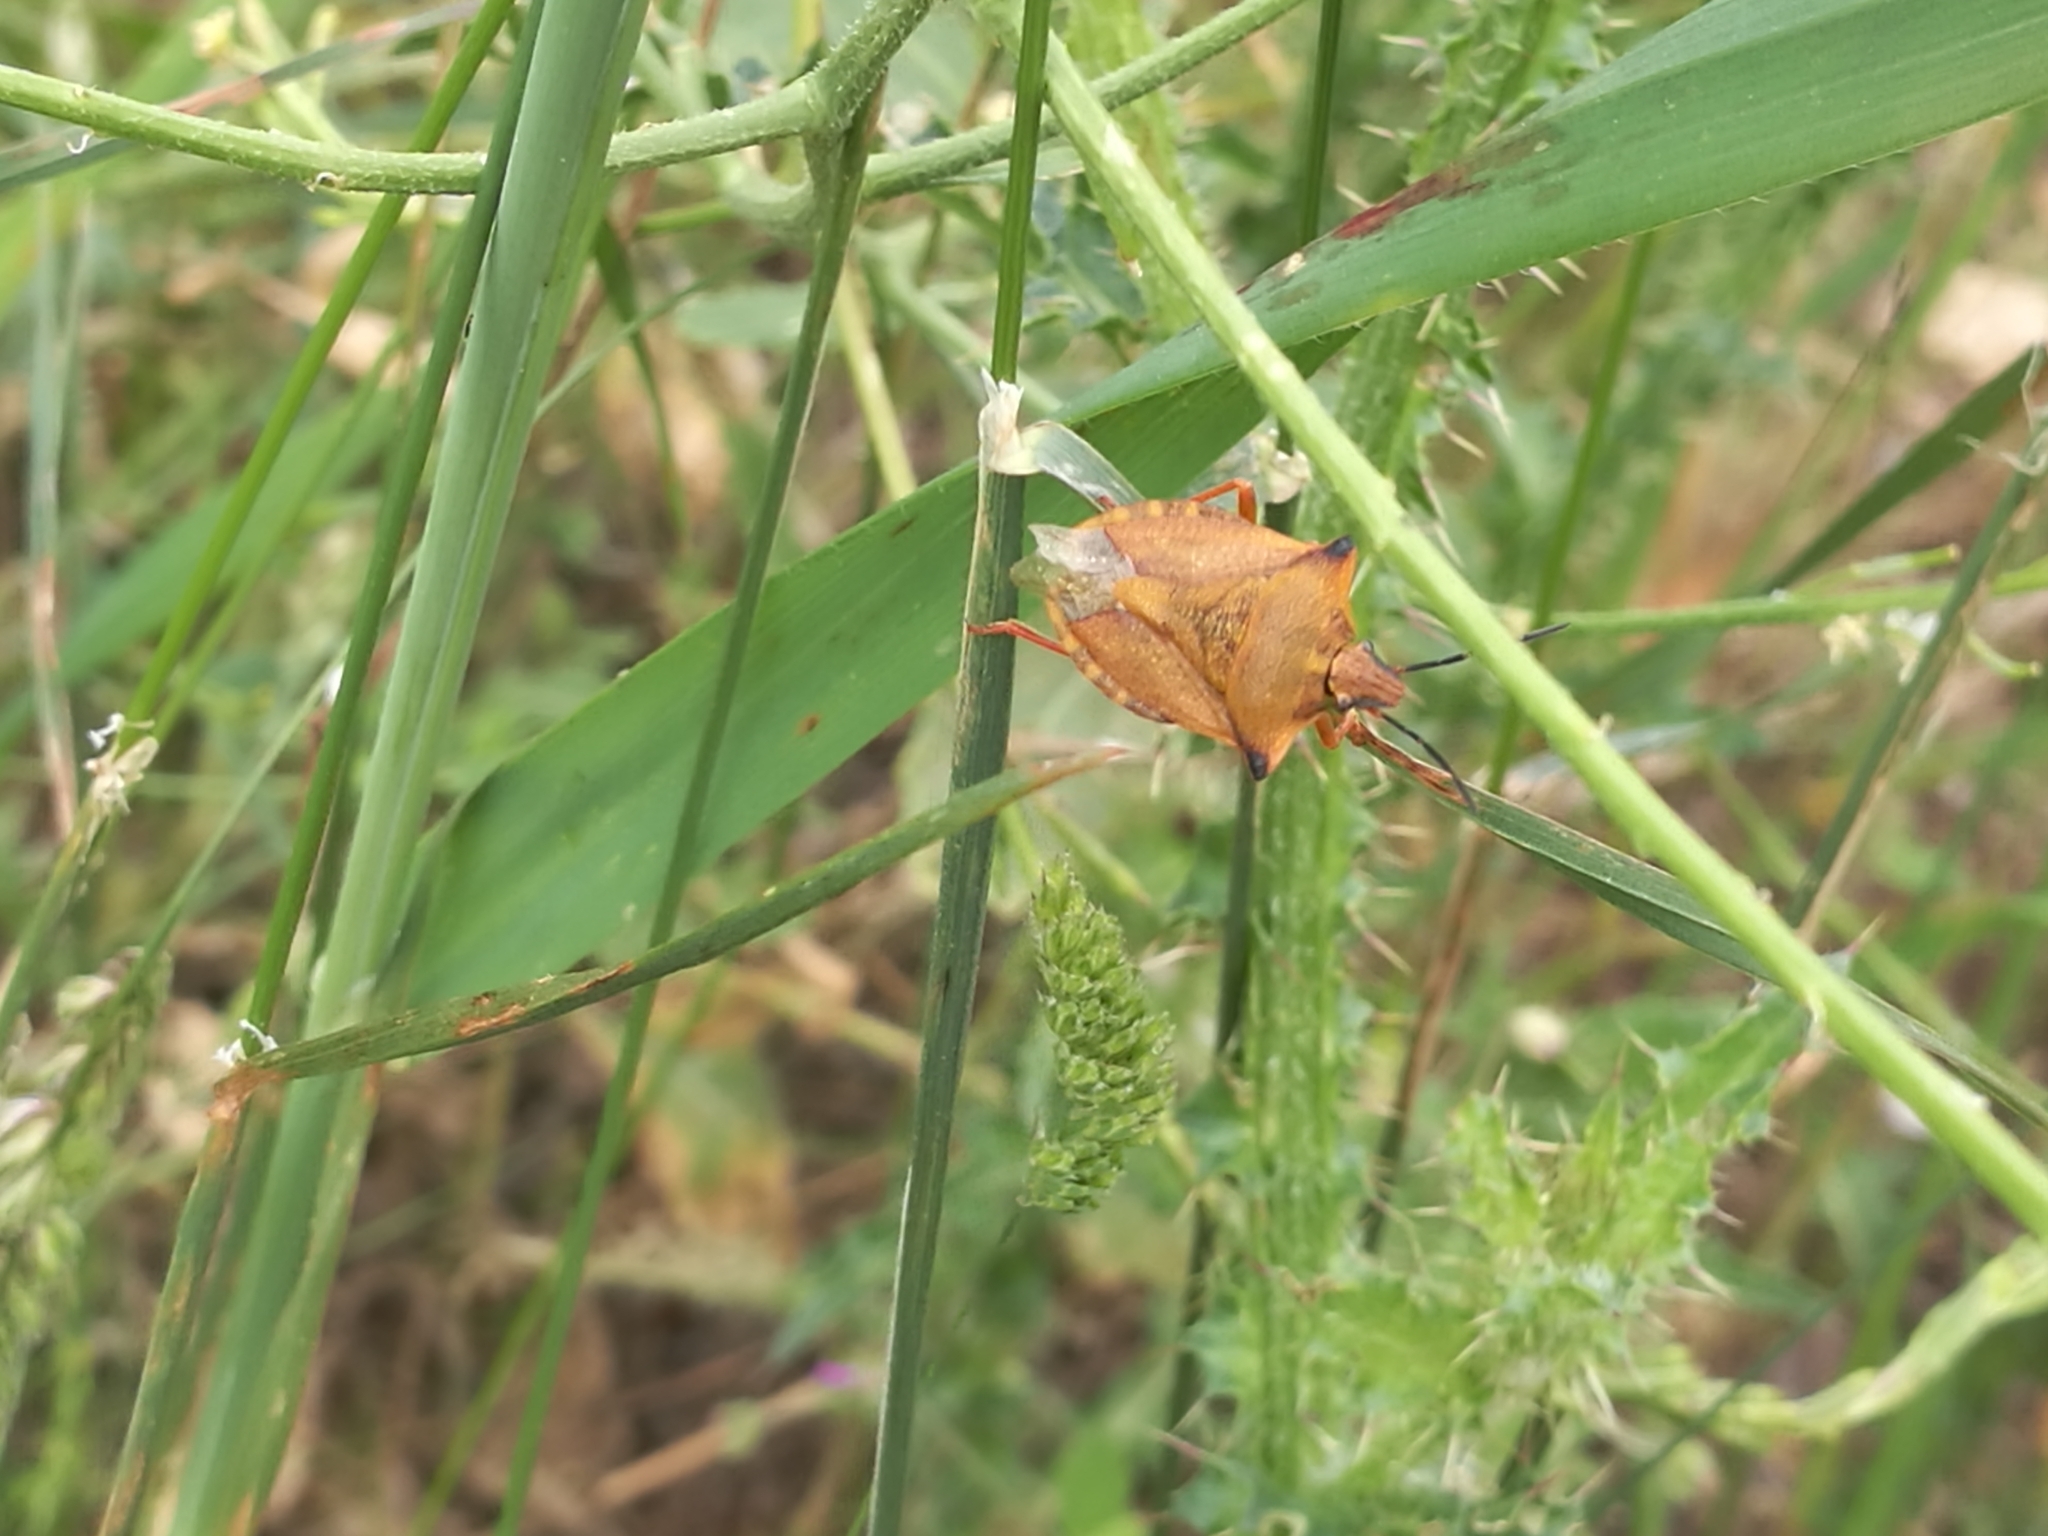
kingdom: Animalia
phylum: Arthropoda
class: Insecta
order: Hemiptera
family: Pentatomidae
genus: Carpocoris
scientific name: Carpocoris mediterraneus
